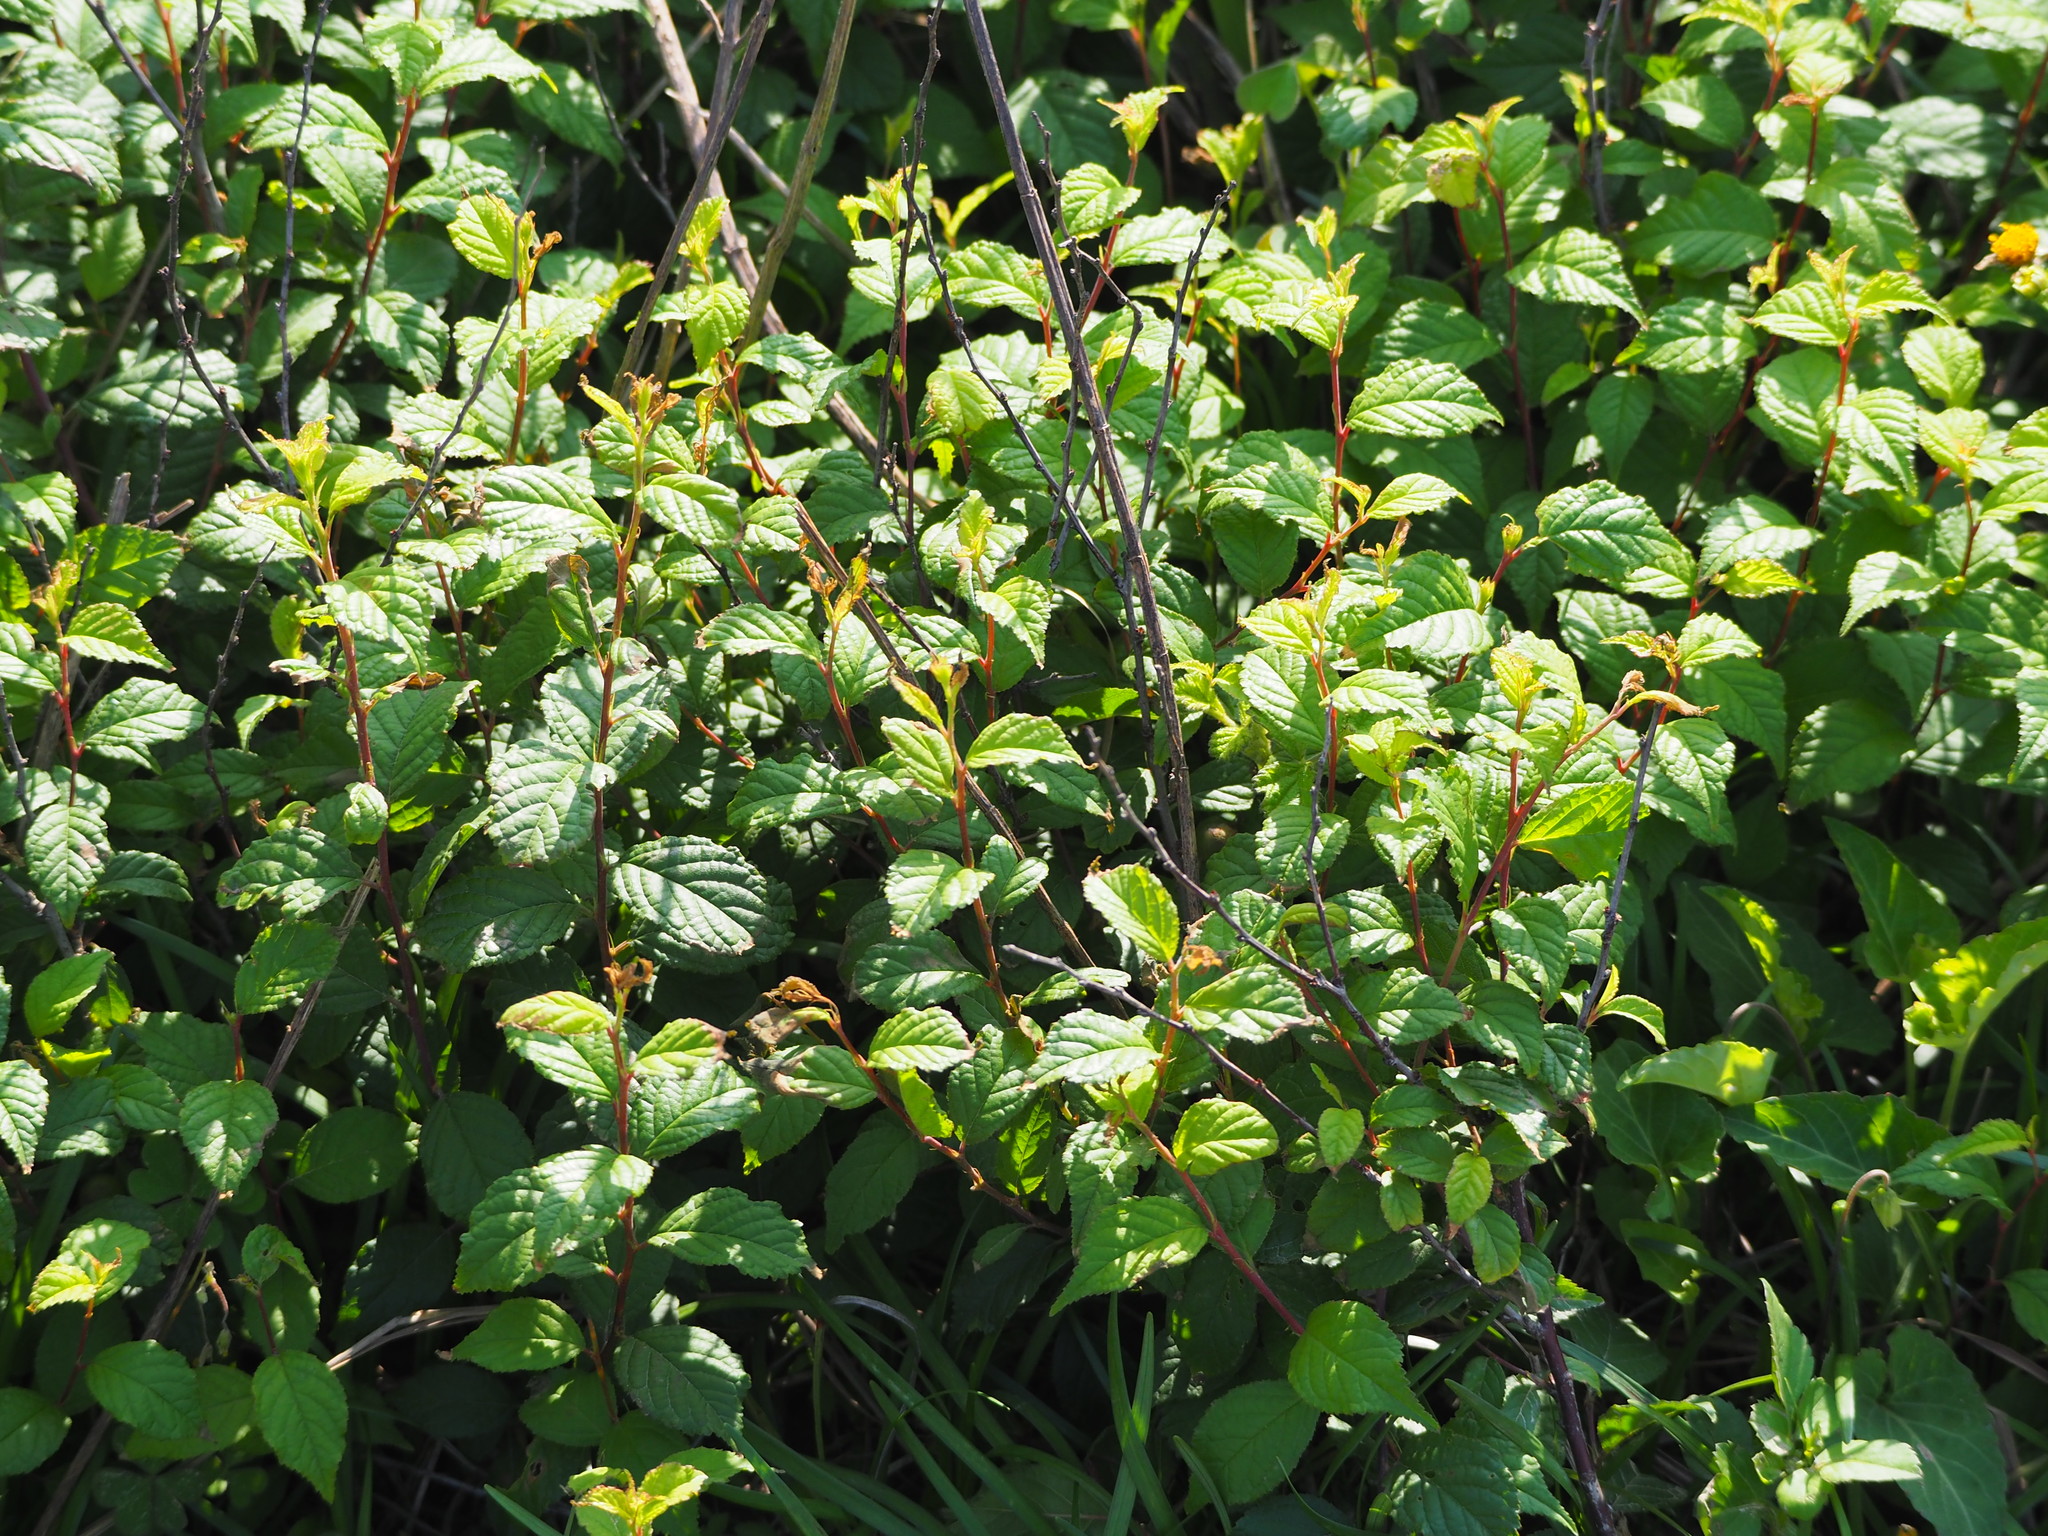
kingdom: Plantae
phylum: Tracheophyta
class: Magnoliopsida
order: Rosales
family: Rosaceae
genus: Prunus
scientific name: Prunus pogonostyla
